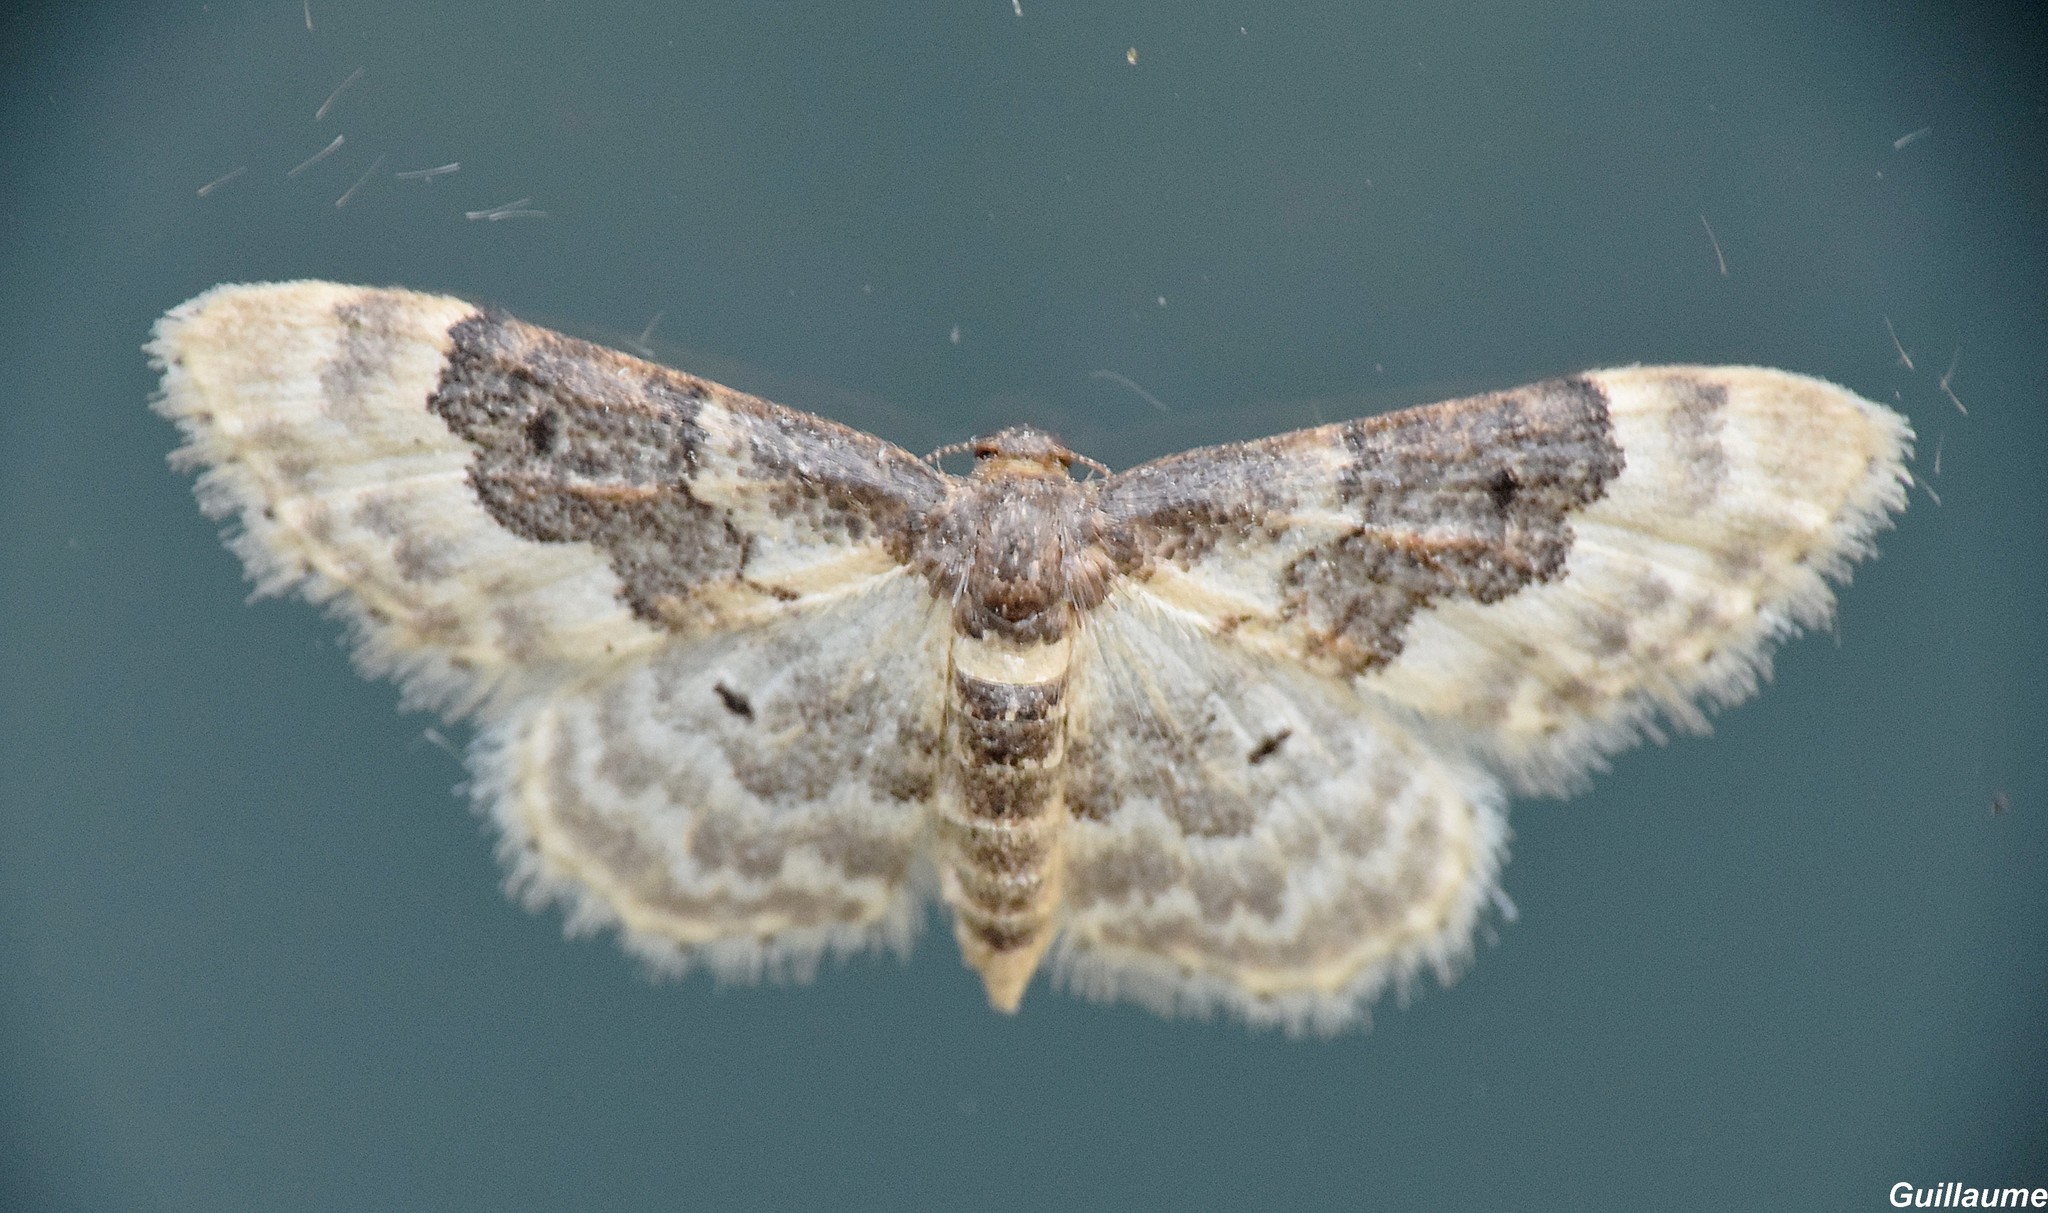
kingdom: Animalia
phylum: Arthropoda
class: Insecta
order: Lepidoptera
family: Geometridae
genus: Idaea
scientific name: Idaea rusticata
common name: Least carpet
